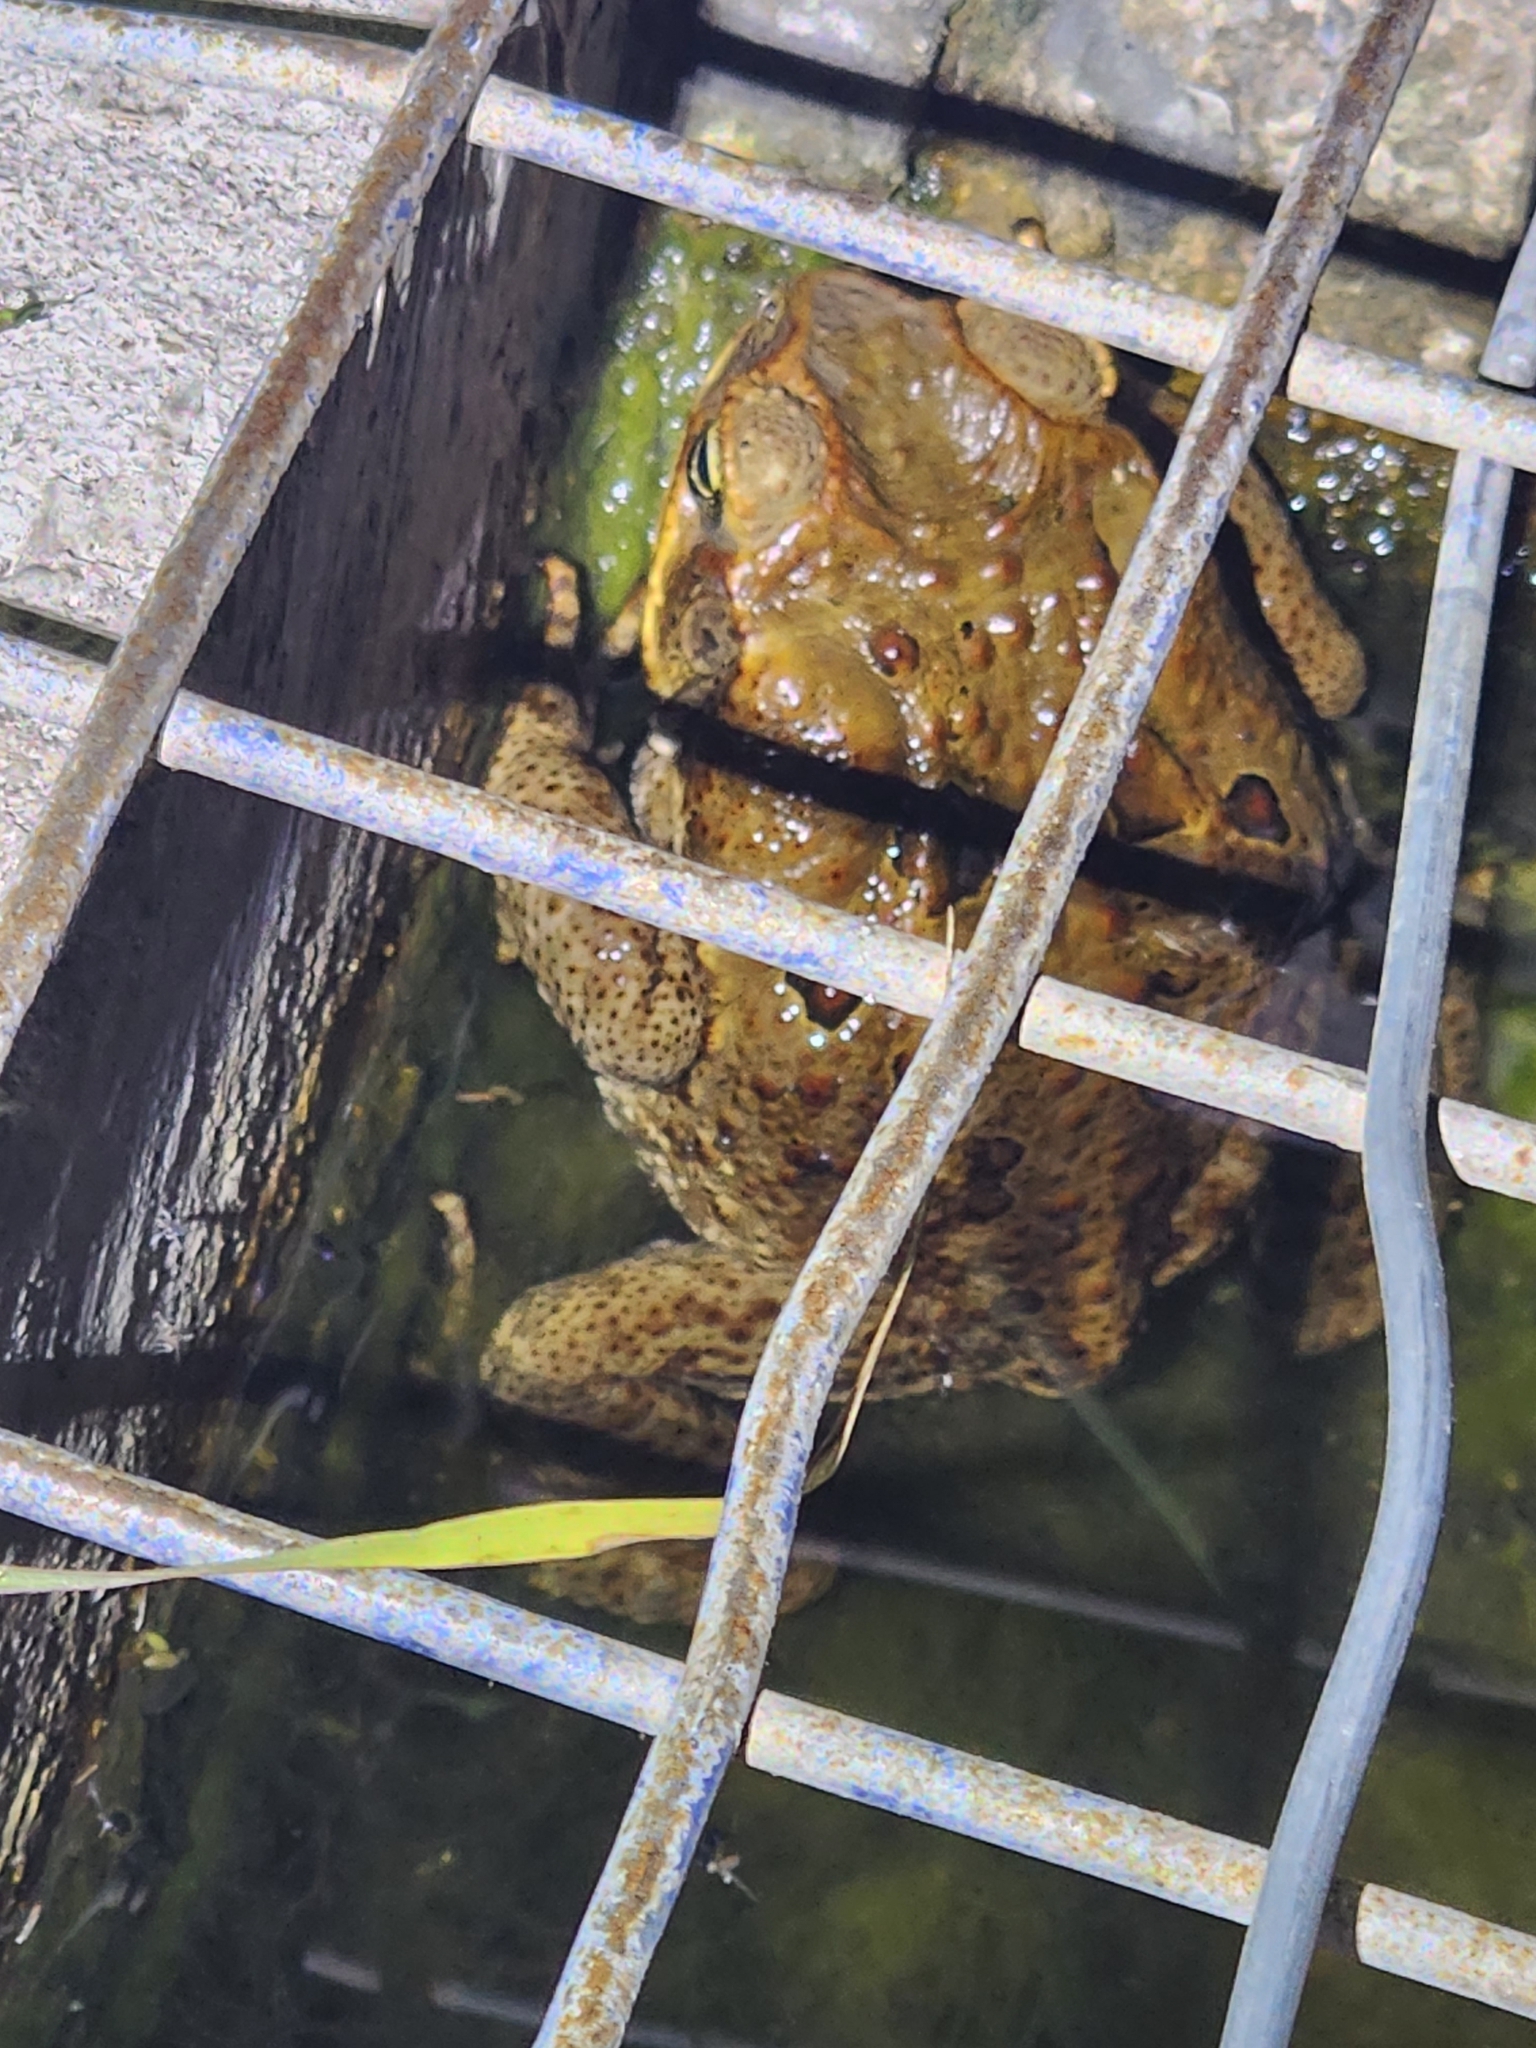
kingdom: Animalia
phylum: Chordata
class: Amphibia
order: Anura
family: Bufonidae
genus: Rhinella
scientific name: Rhinella marina
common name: Cane toad
